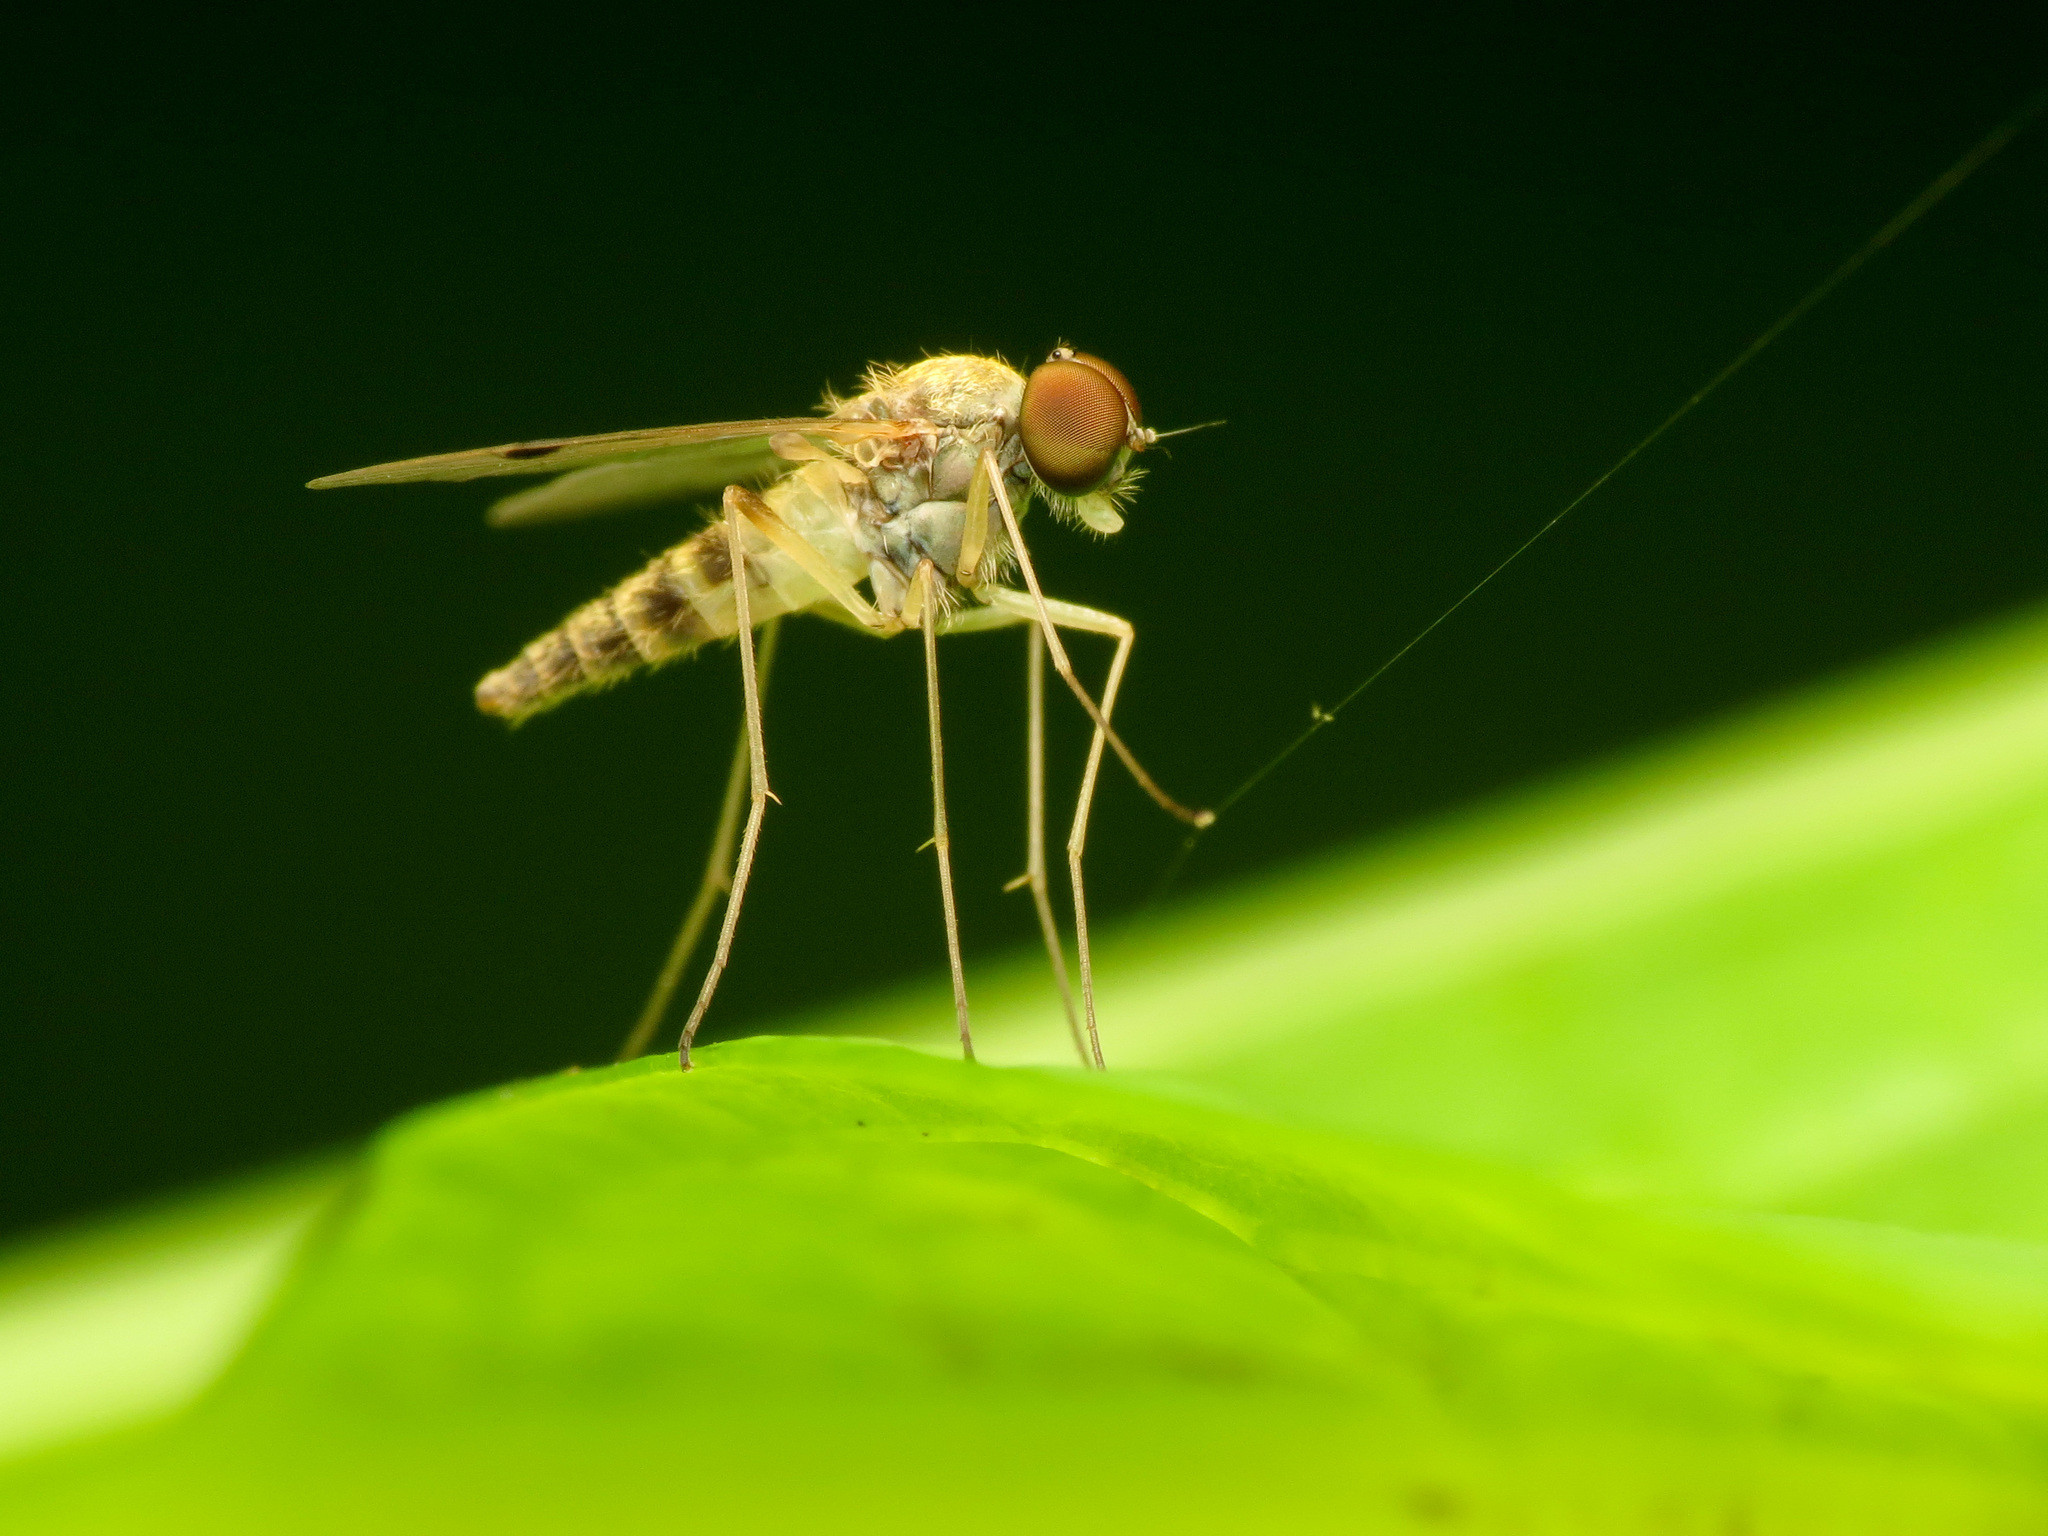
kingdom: Animalia
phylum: Arthropoda
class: Insecta
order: Diptera
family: Rhagionidae
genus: Chrysopilus
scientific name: Chrysopilus modestus
